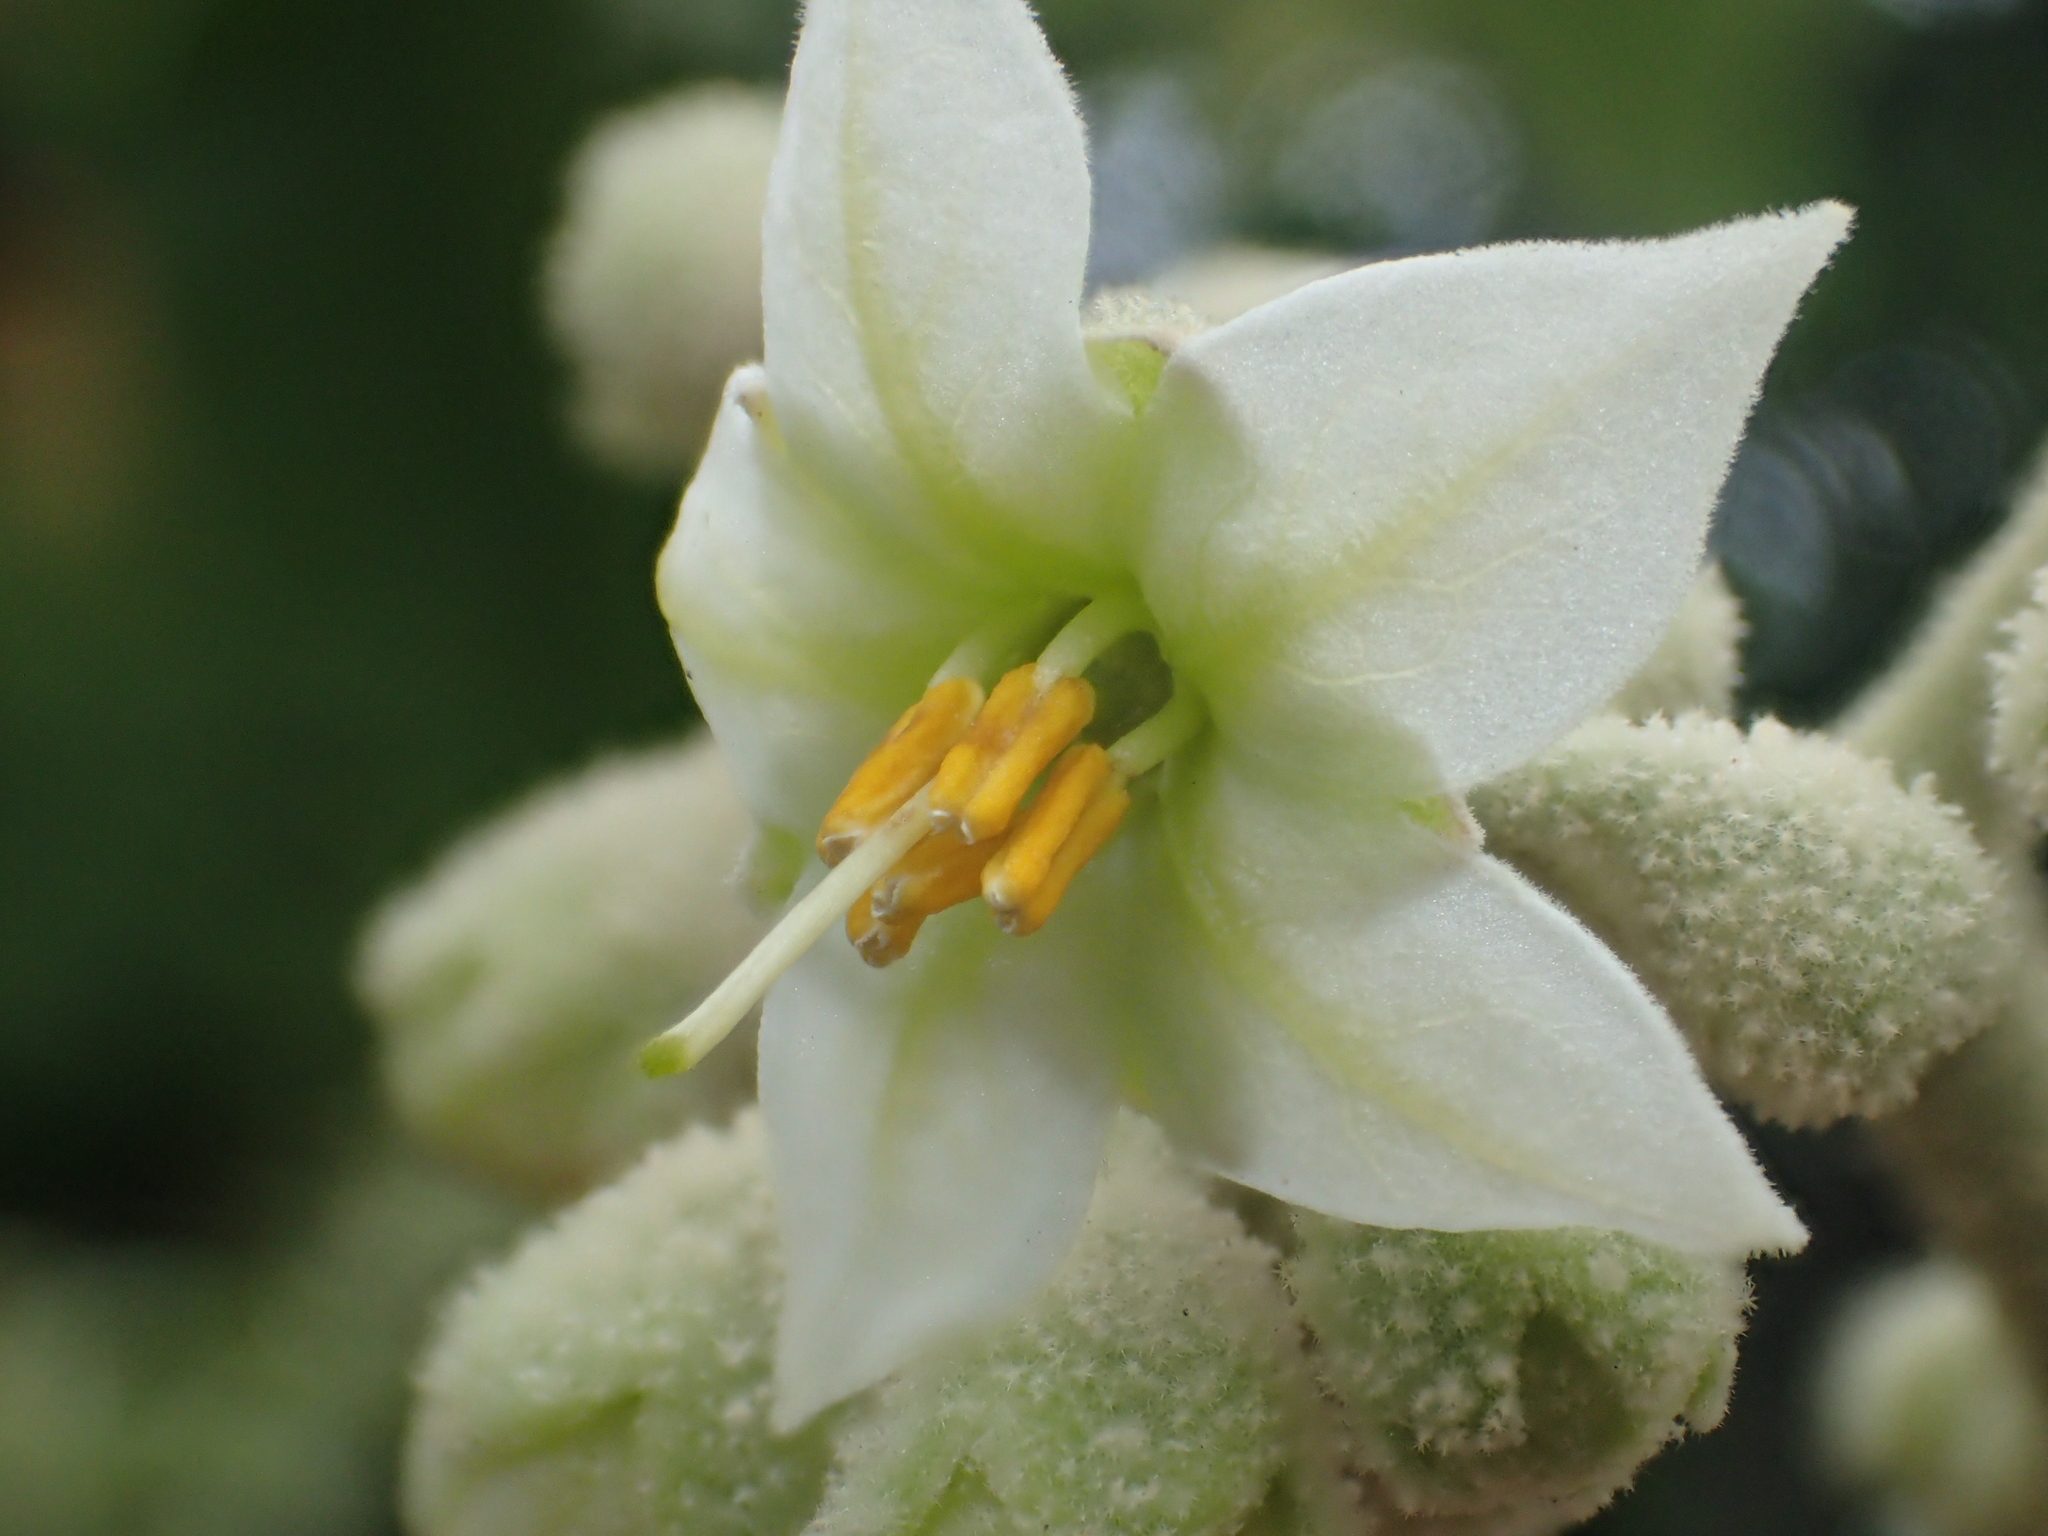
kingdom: Plantae
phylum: Tracheophyta
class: Magnoliopsida
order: Solanales
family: Solanaceae
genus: Solanum
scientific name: Solanum erianthum
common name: Tobacco-tree
